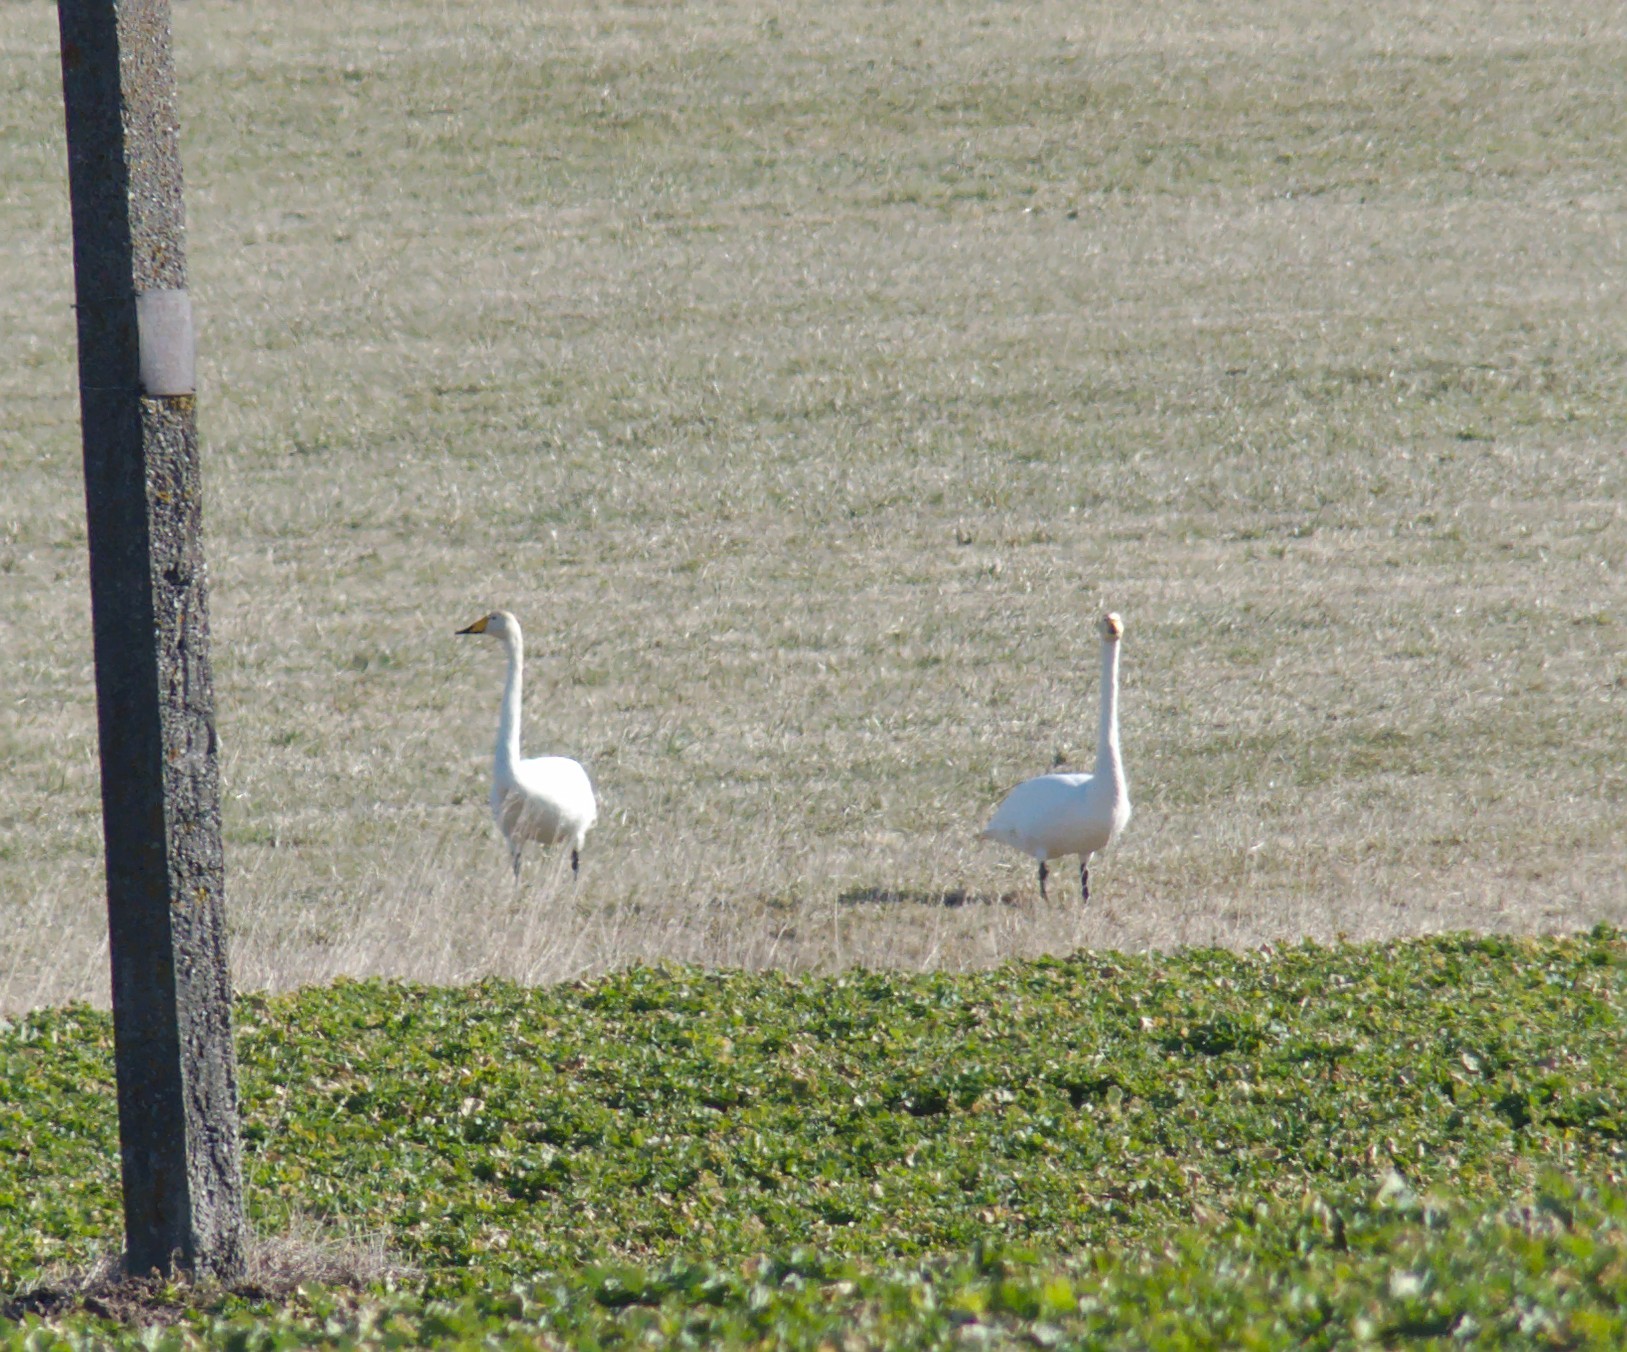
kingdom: Animalia
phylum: Chordata
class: Aves
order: Anseriformes
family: Anatidae
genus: Cygnus
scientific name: Cygnus cygnus
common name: Whooper swan
